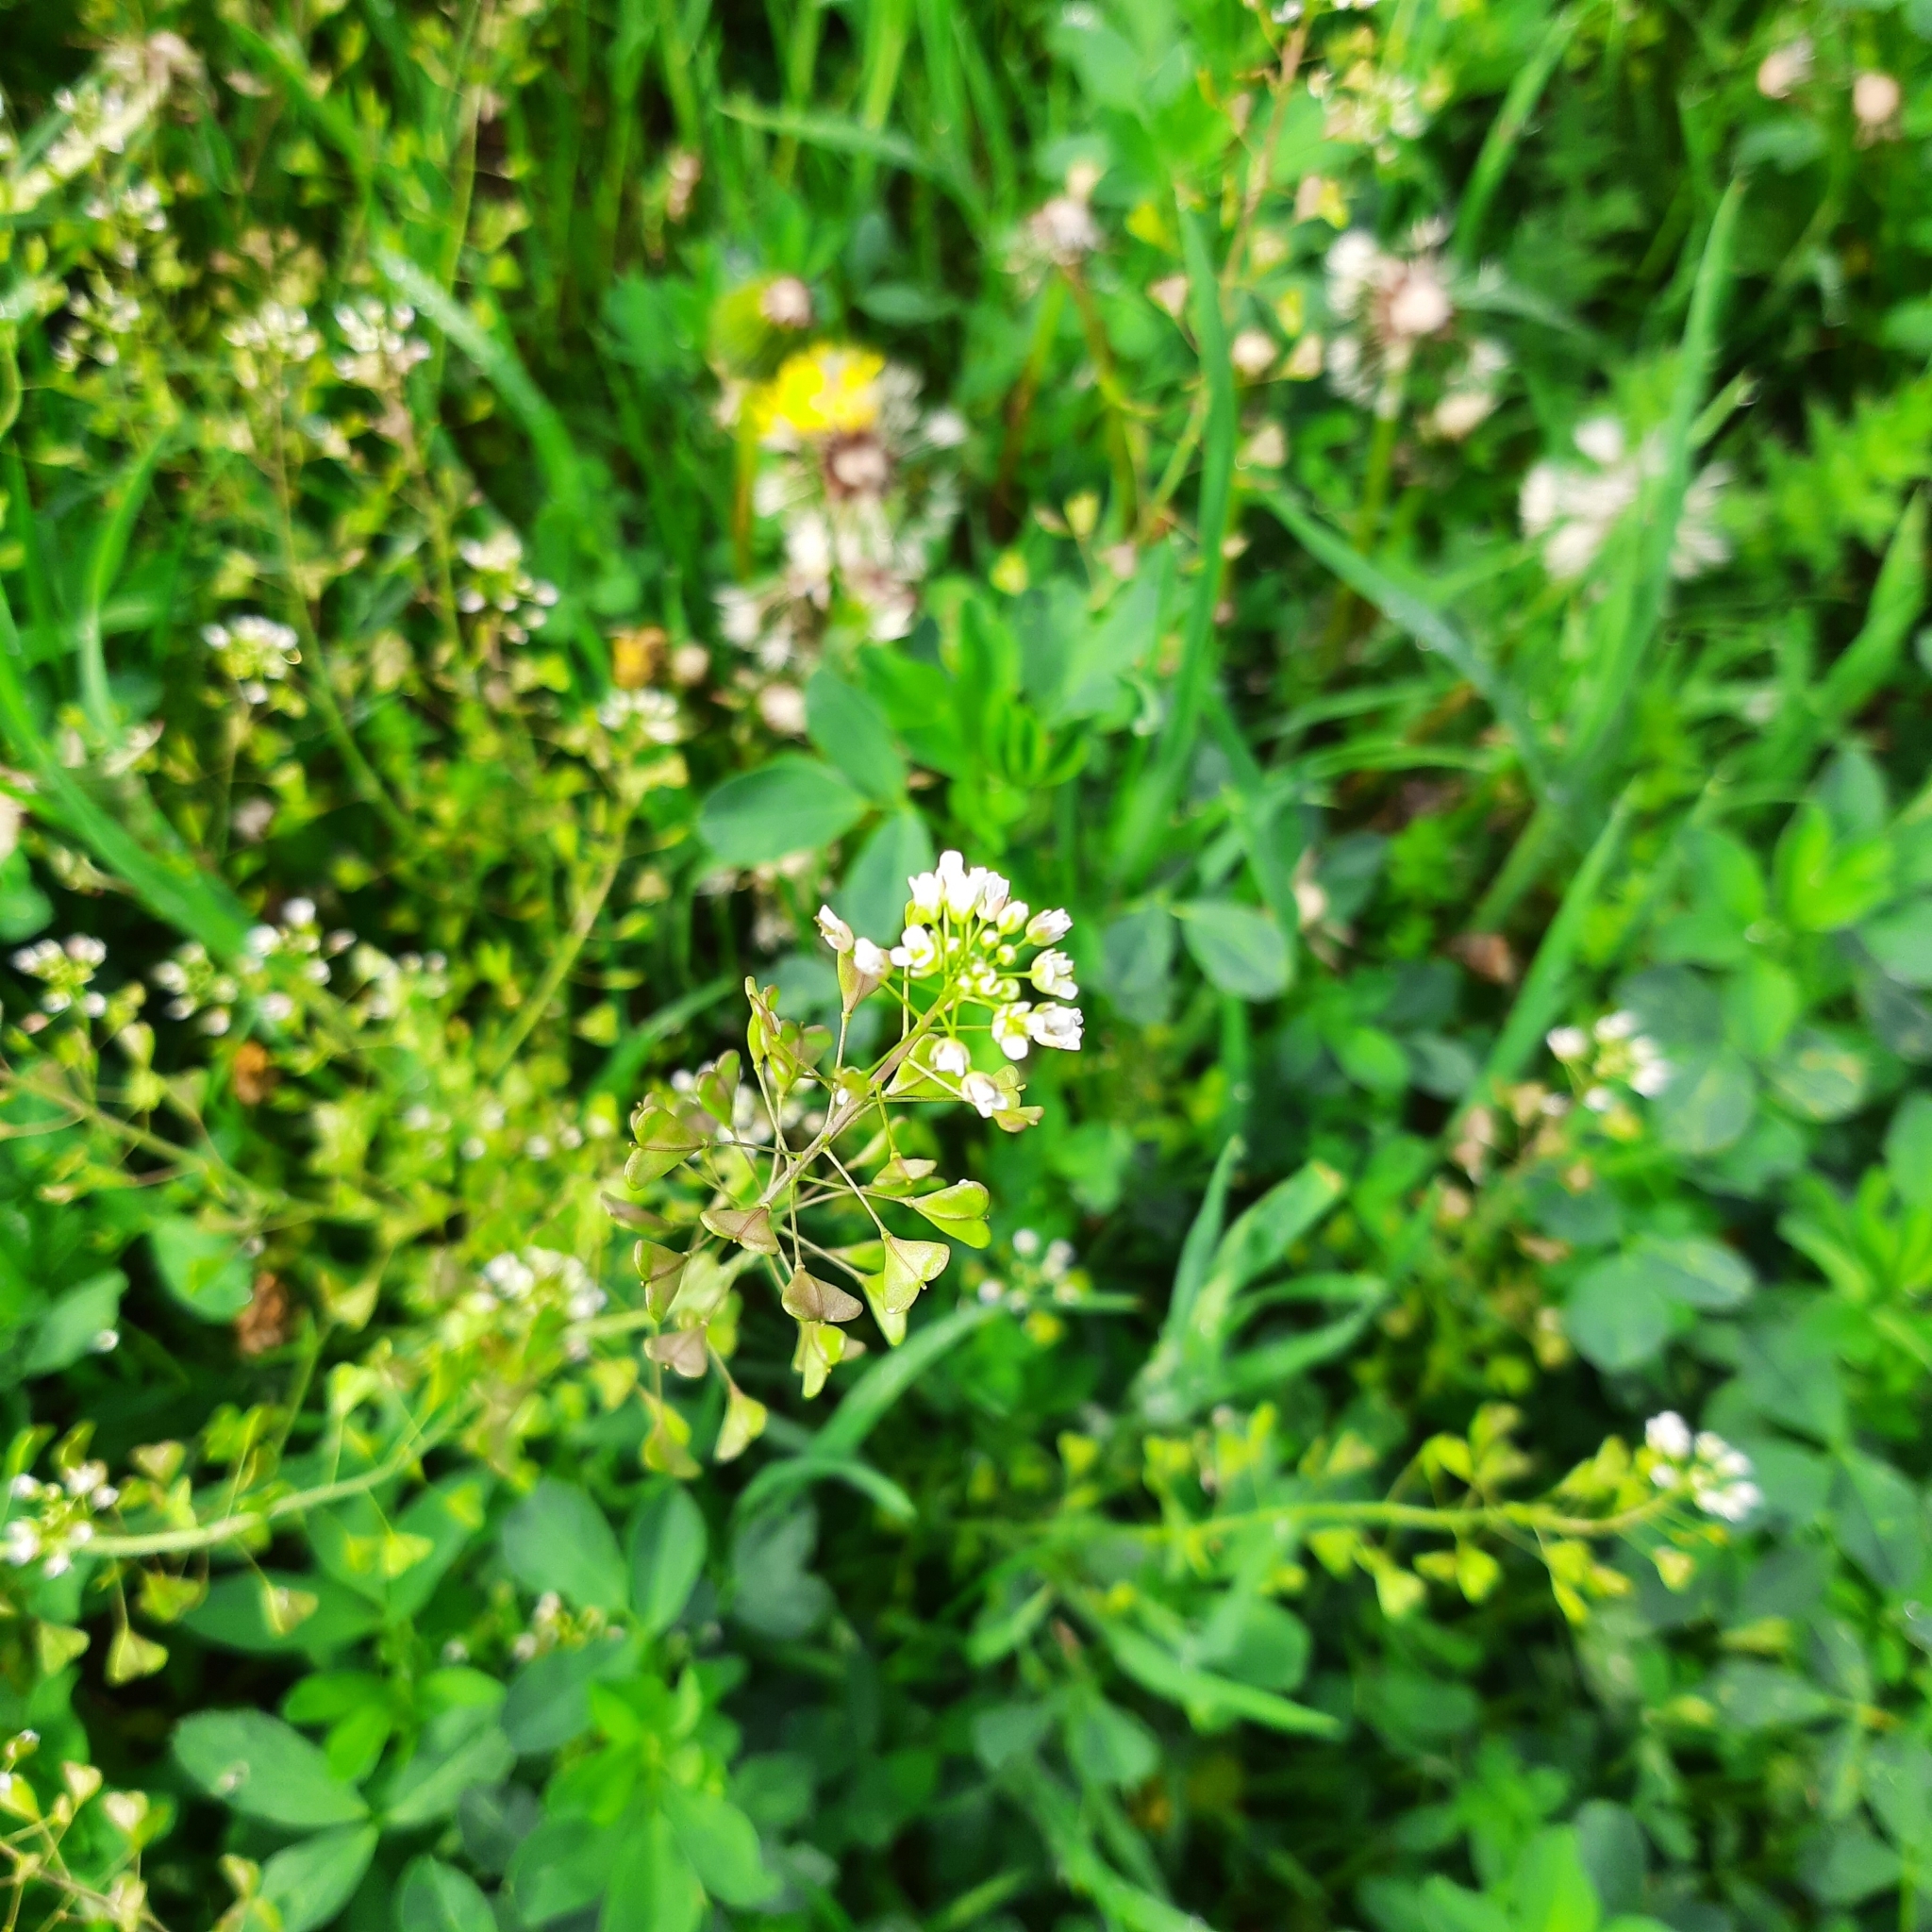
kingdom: Plantae
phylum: Tracheophyta
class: Magnoliopsida
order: Brassicales
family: Brassicaceae
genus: Capsella
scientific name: Capsella bursa-pastoris
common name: Shepherd's purse
